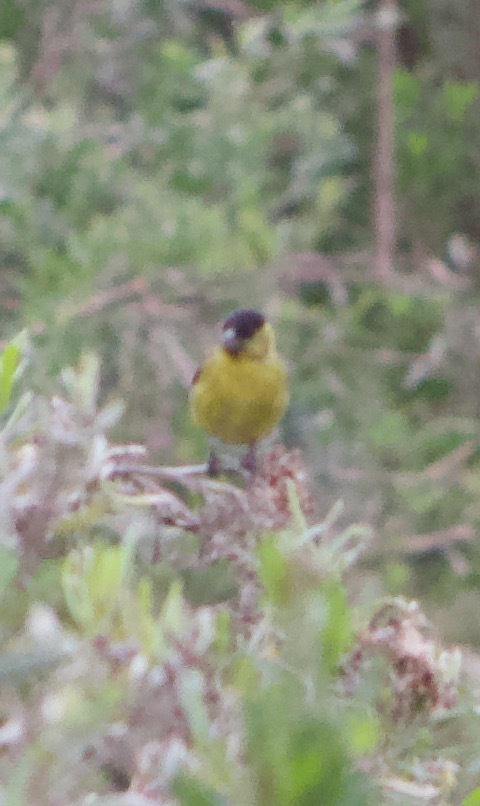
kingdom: Animalia
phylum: Chordata
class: Aves
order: Passeriformes
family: Fringillidae
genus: Spinus
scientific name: Spinus barbatus
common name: Black-chinned siskin
